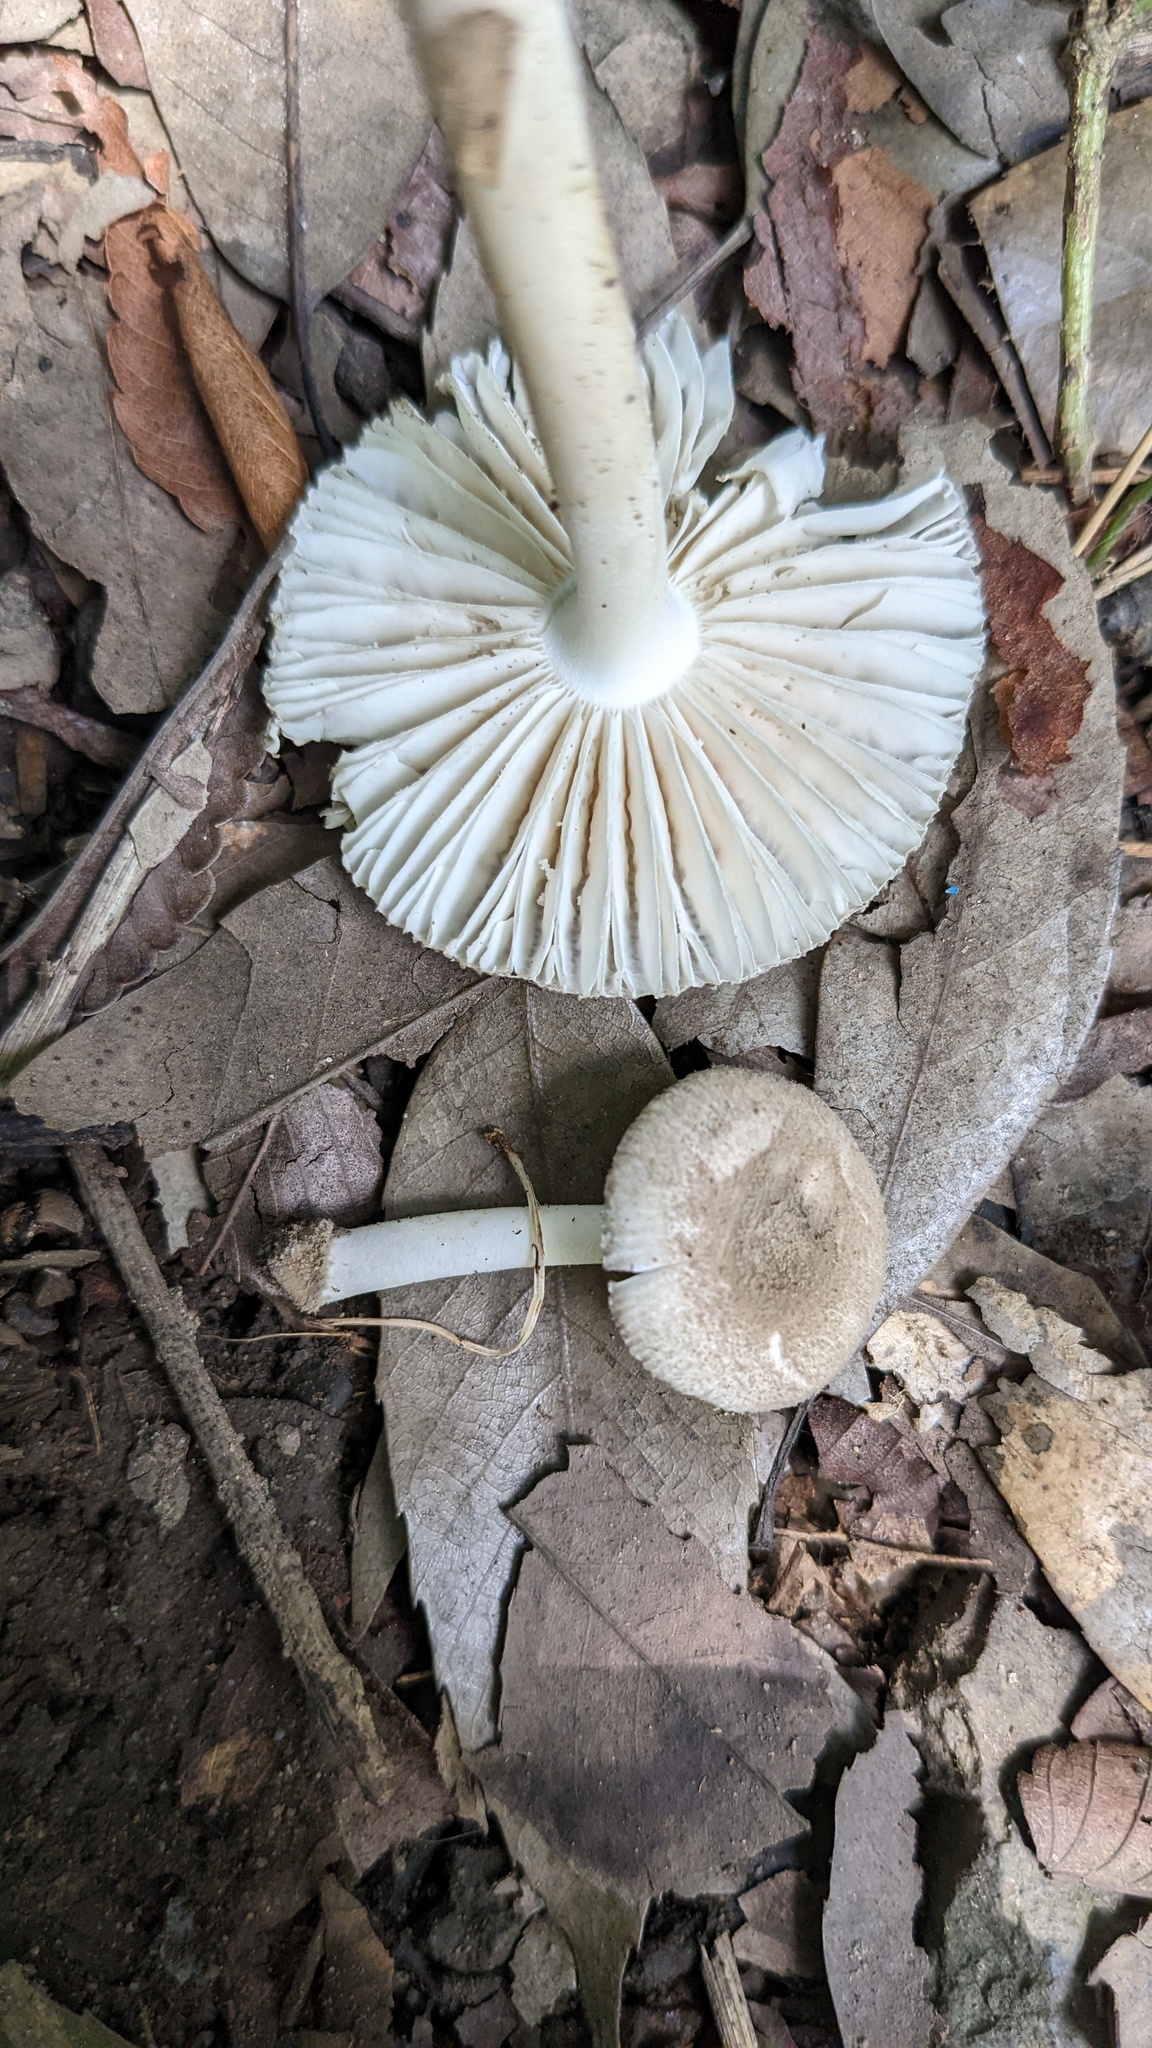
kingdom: Fungi
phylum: Basidiomycota
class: Agaricomycetes
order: Agaricales
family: Amanitaceae
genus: Amanita
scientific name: Amanita farinosa
